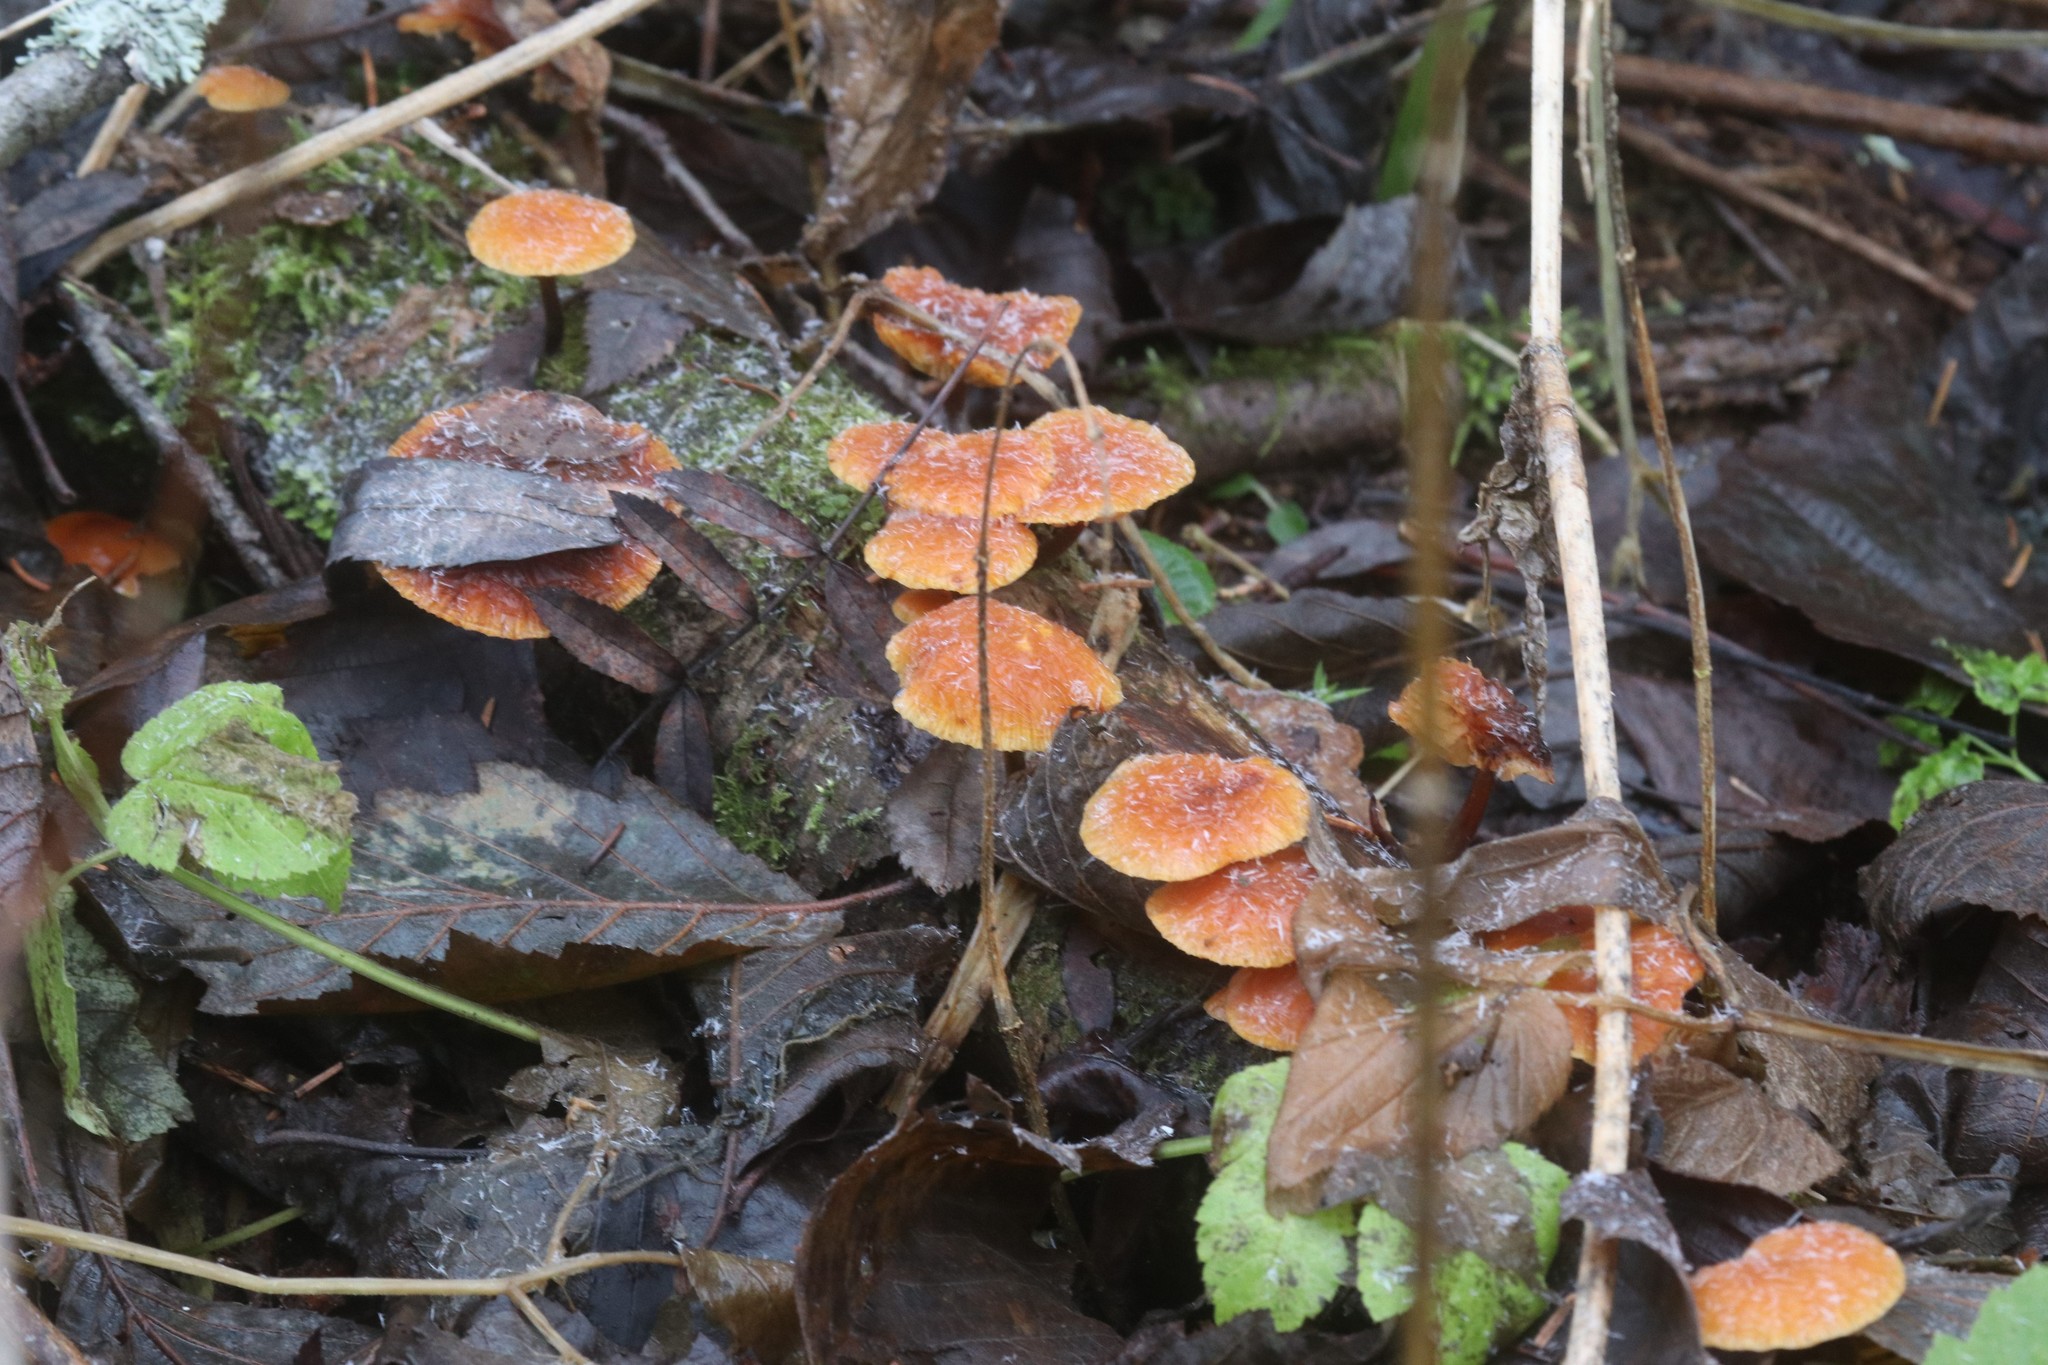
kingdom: Fungi
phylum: Basidiomycota
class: Agaricomycetes
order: Agaricales
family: Physalacriaceae
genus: Flammulina
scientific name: Flammulina
